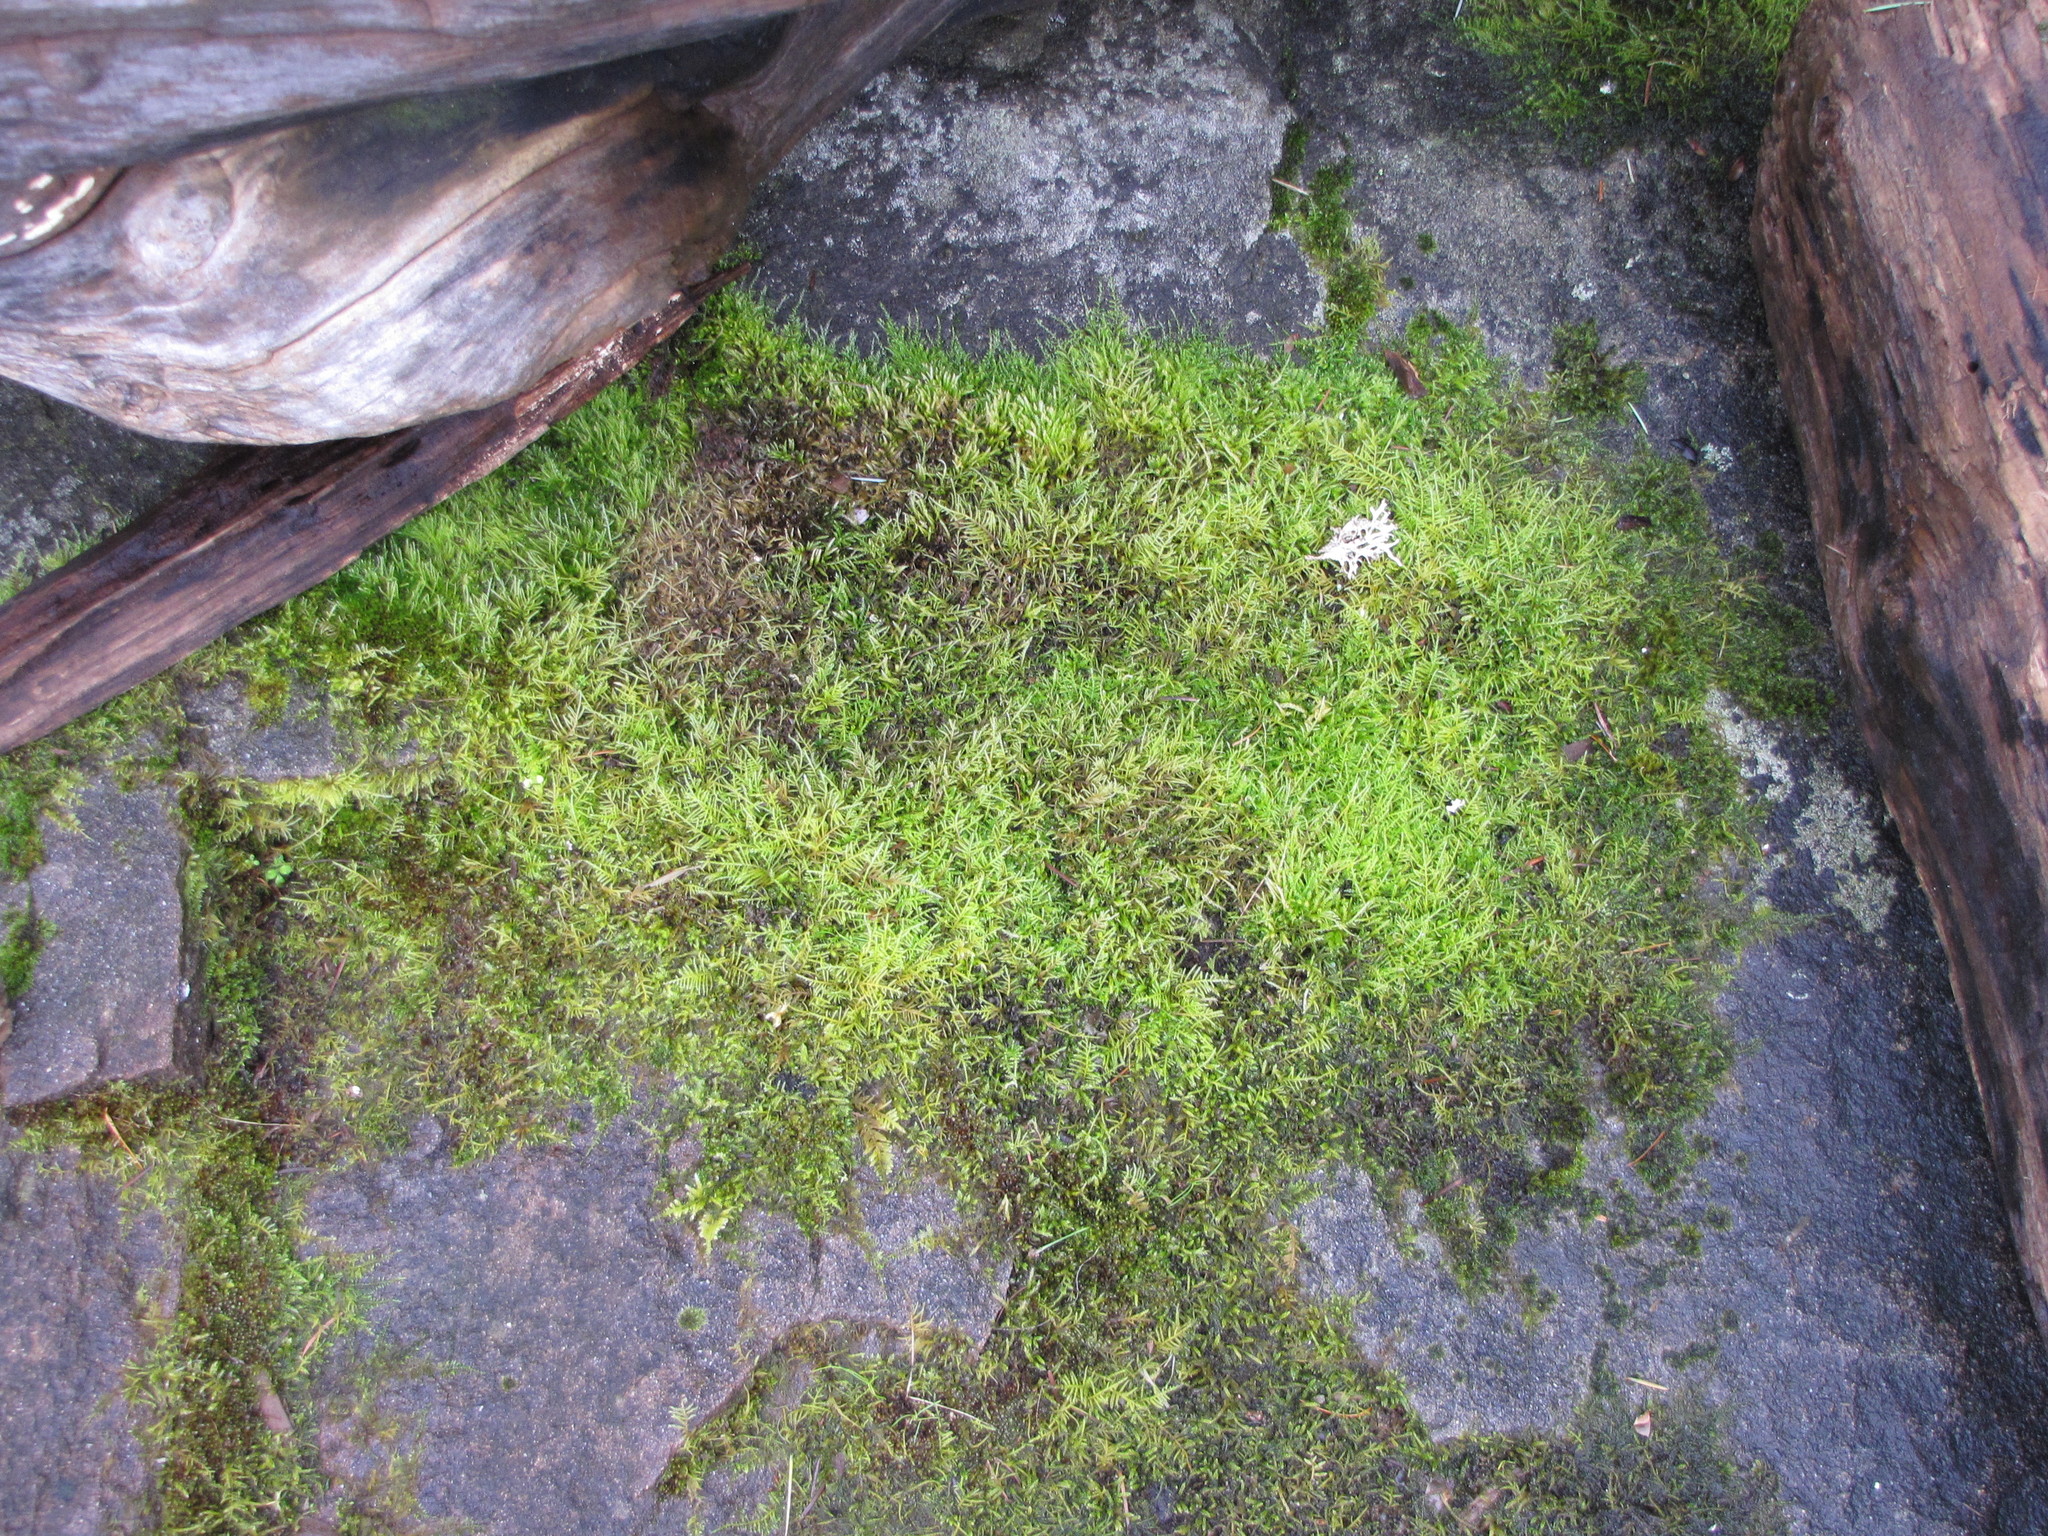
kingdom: Plantae
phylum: Bryophyta
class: Bryopsida
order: Hypnales
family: Brachytheciaceae
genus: Kindbergia
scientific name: Kindbergia praelonga
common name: Slender beaked moss
